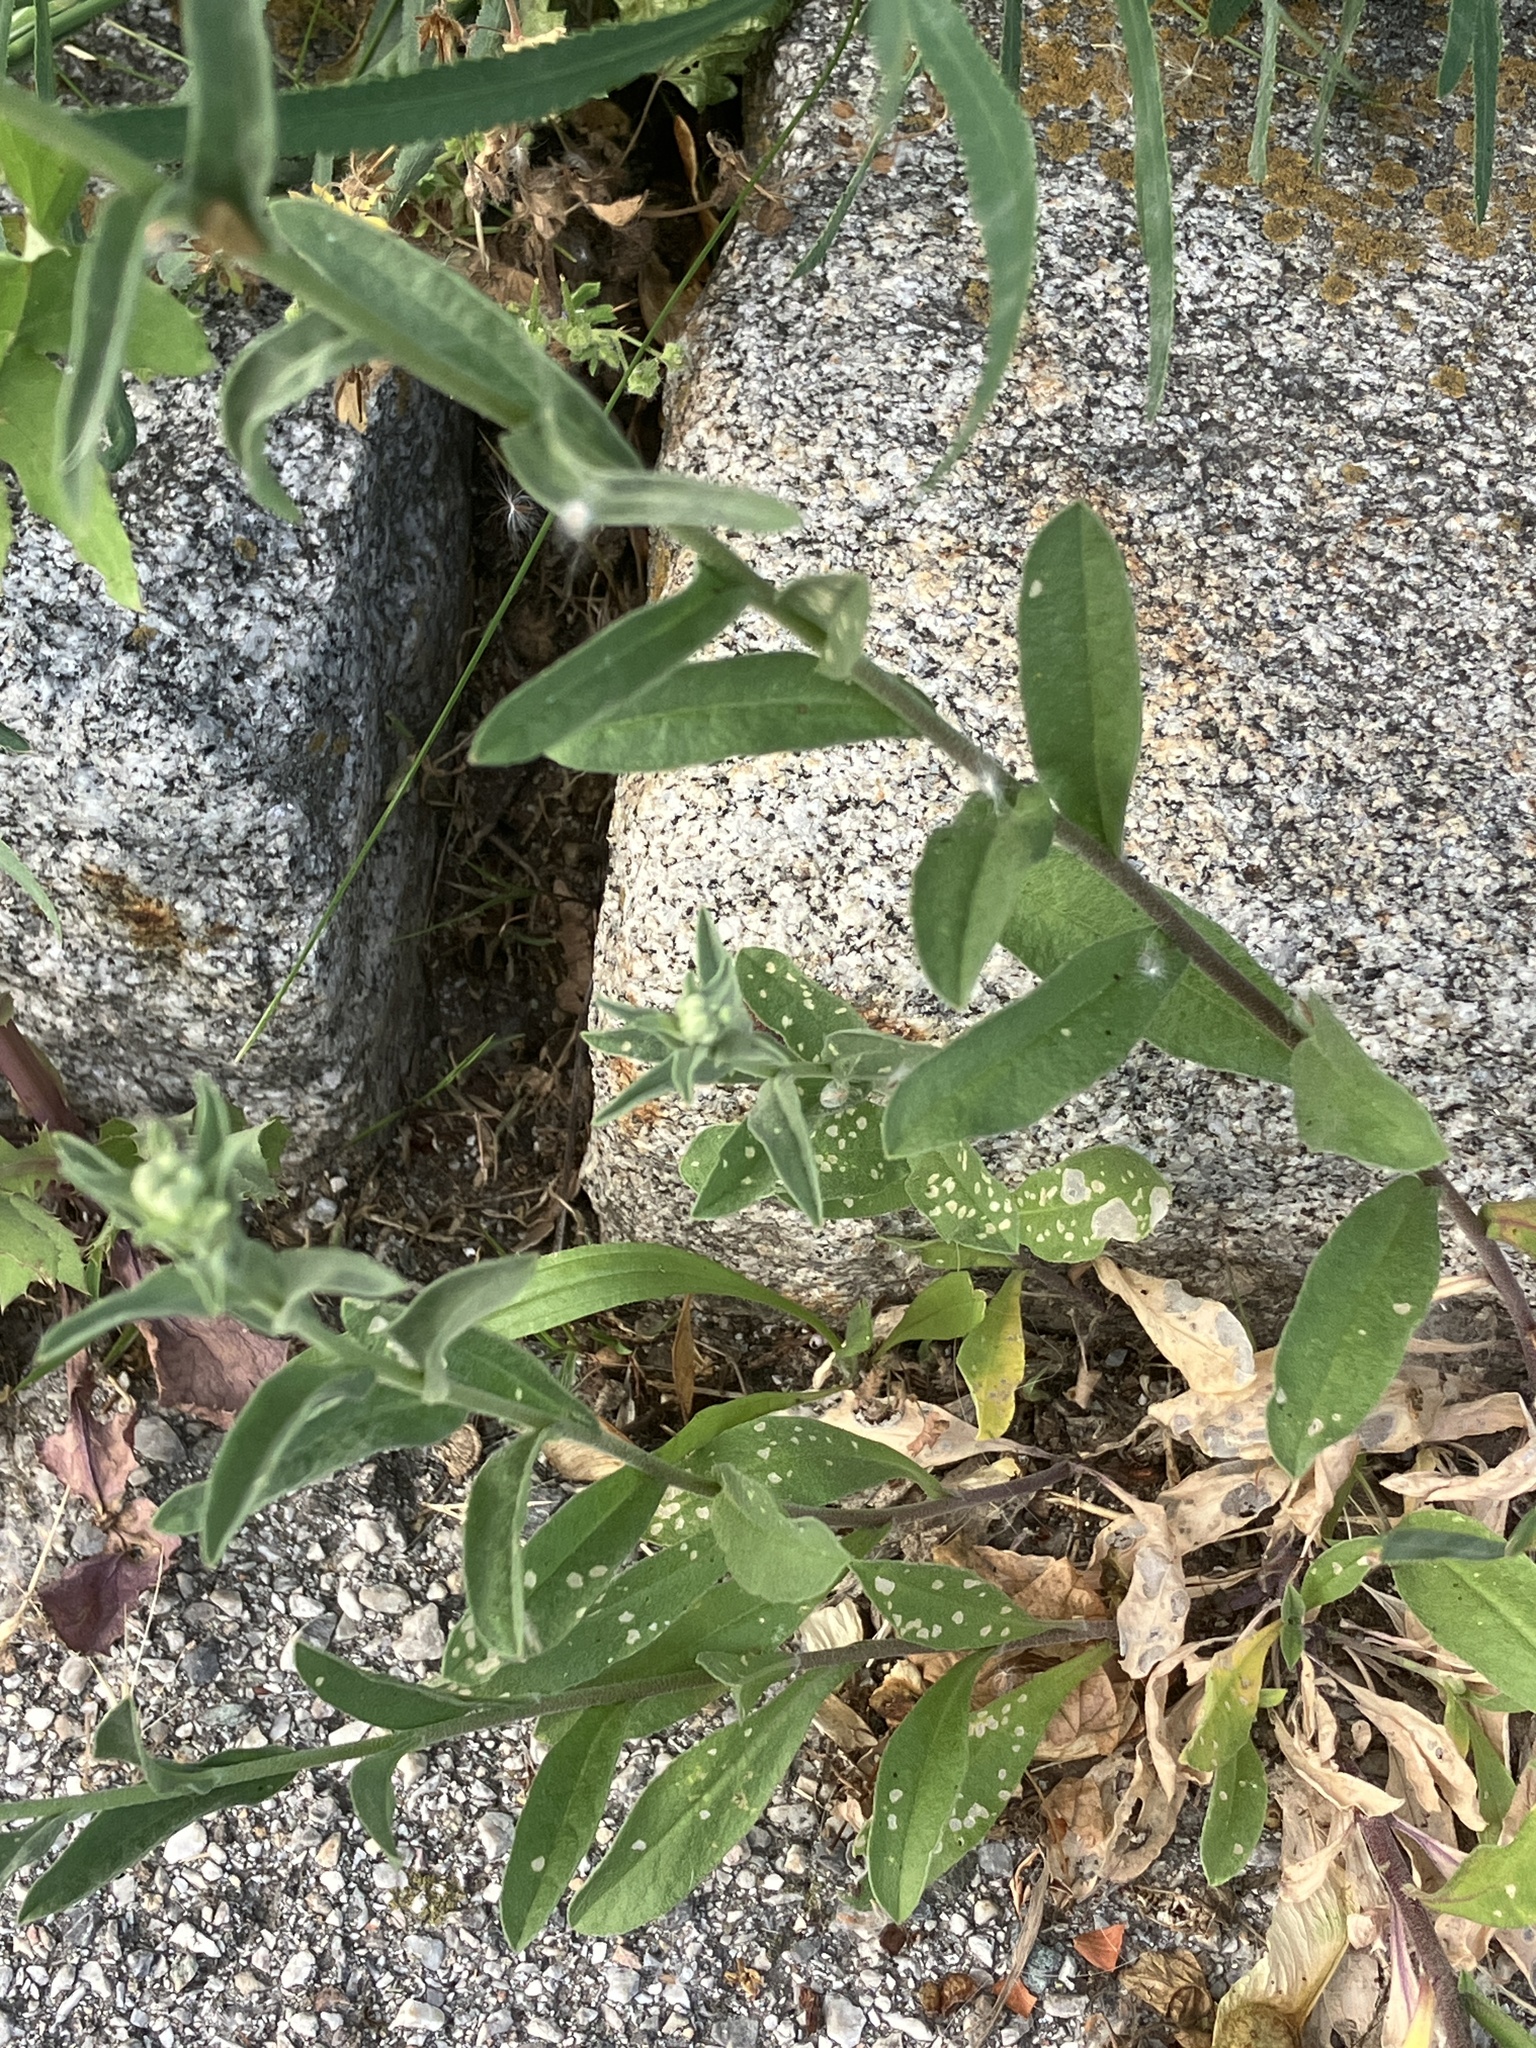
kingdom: Plantae
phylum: Tracheophyta
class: Magnoliopsida
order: Brassicales
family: Brassicaceae
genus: Berteroa
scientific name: Berteroa incana
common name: Hoary alison
